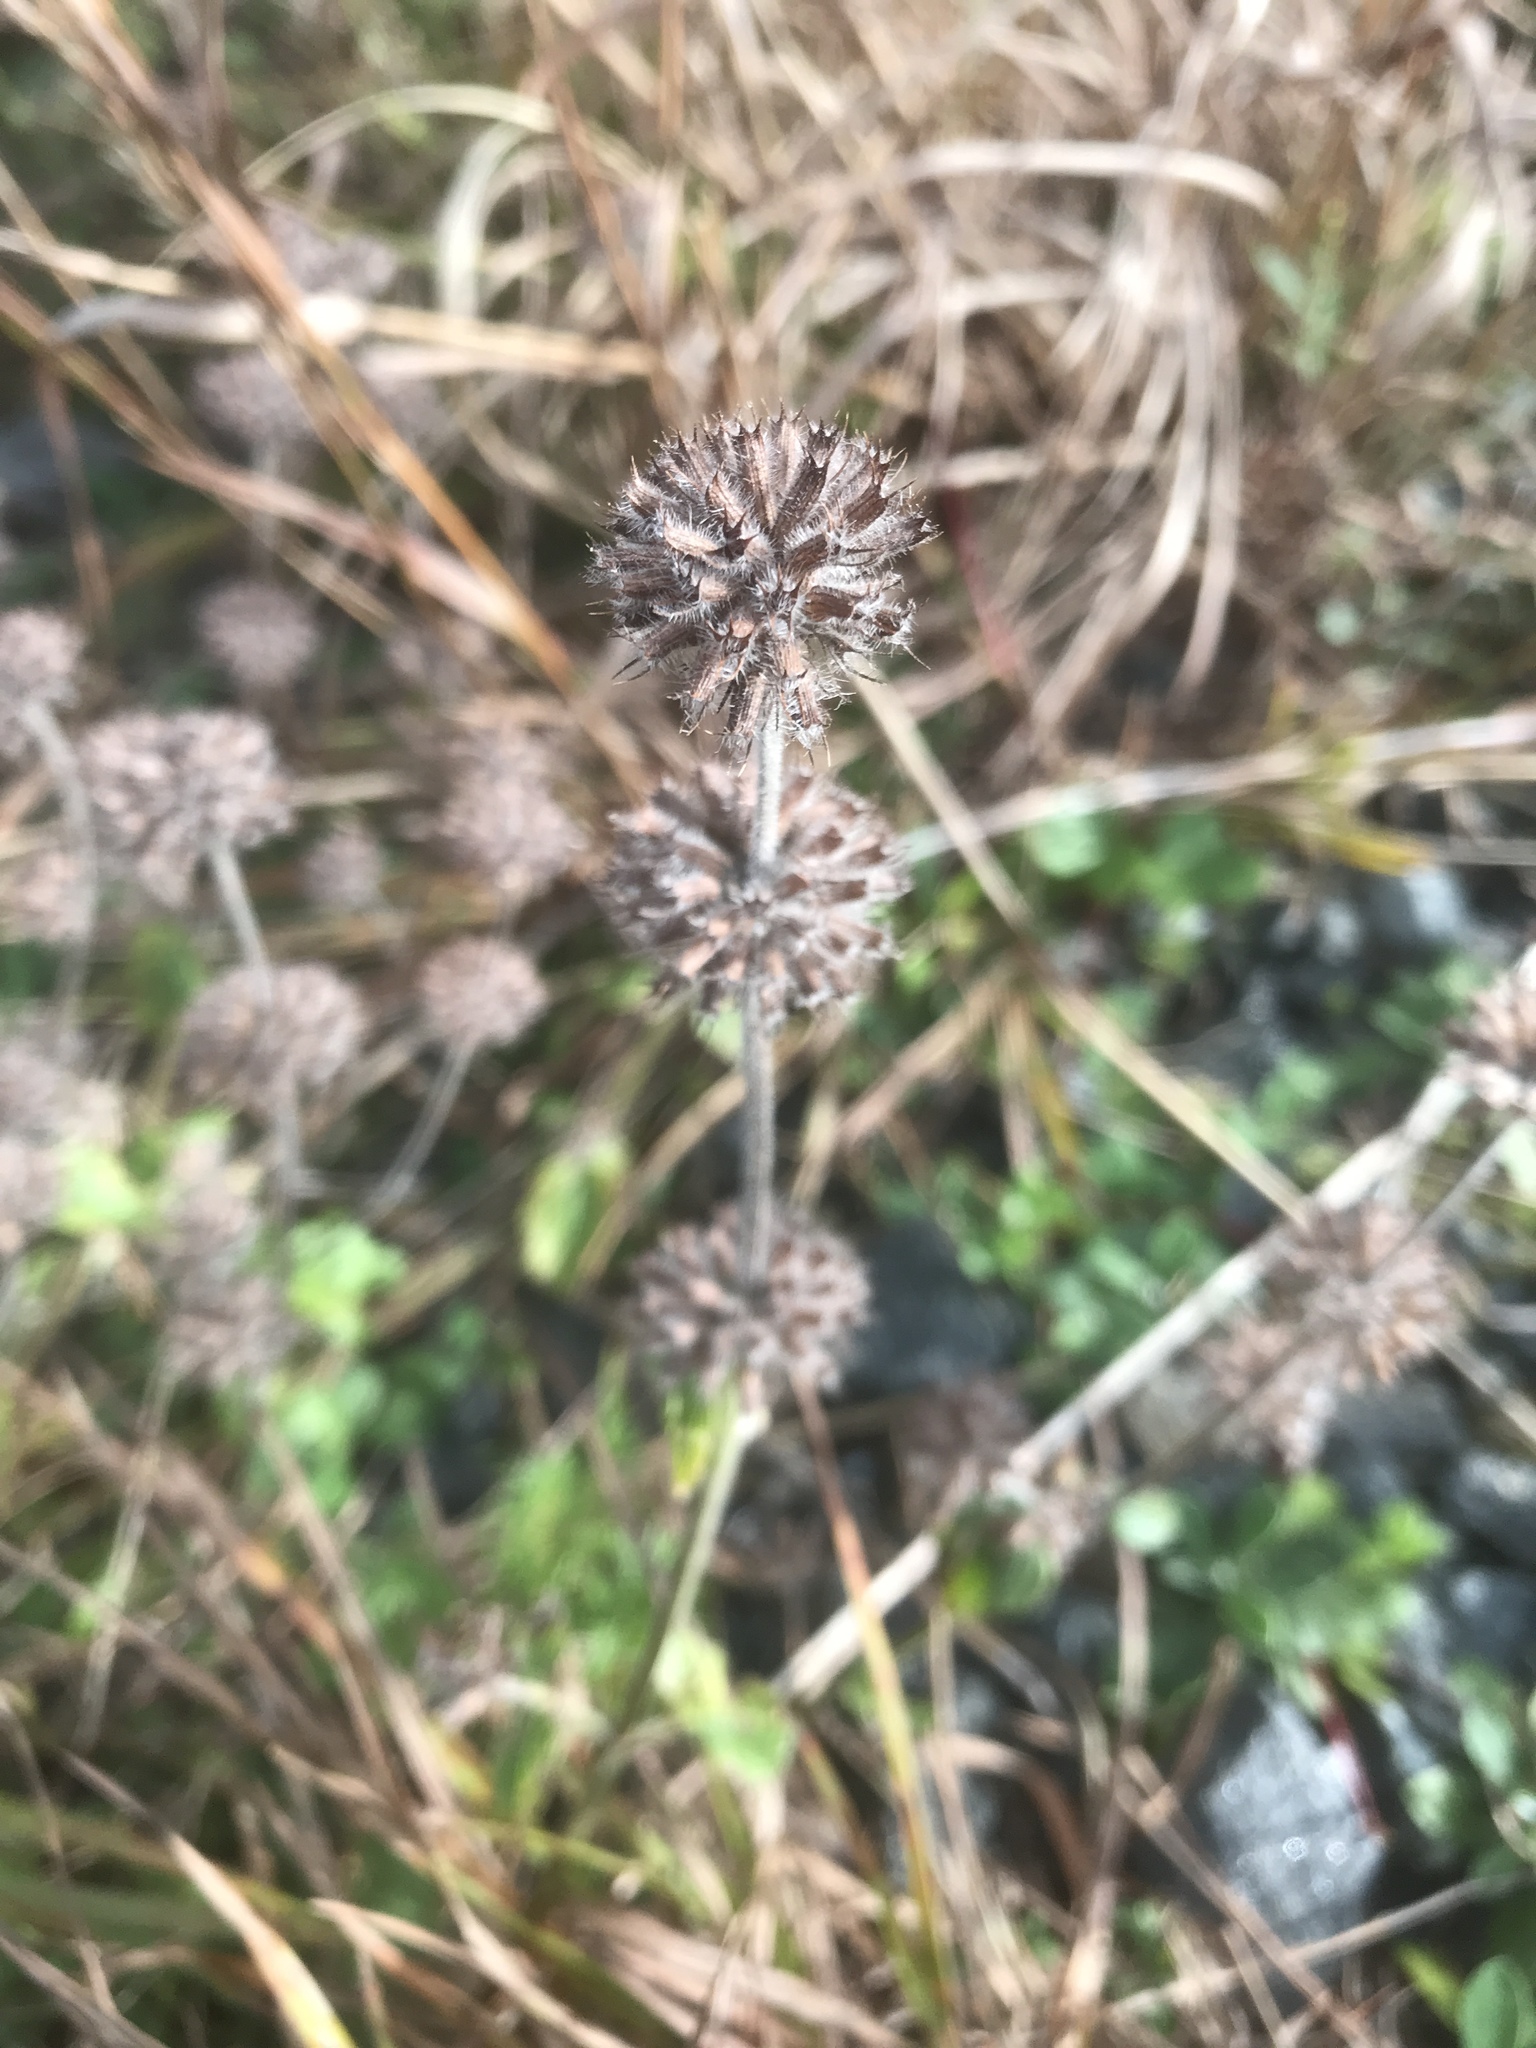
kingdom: Plantae
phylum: Tracheophyta
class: Magnoliopsida
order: Lamiales
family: Lamiaceae
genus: Clinopodium
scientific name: Clinopodium vulgare
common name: Wild basil
